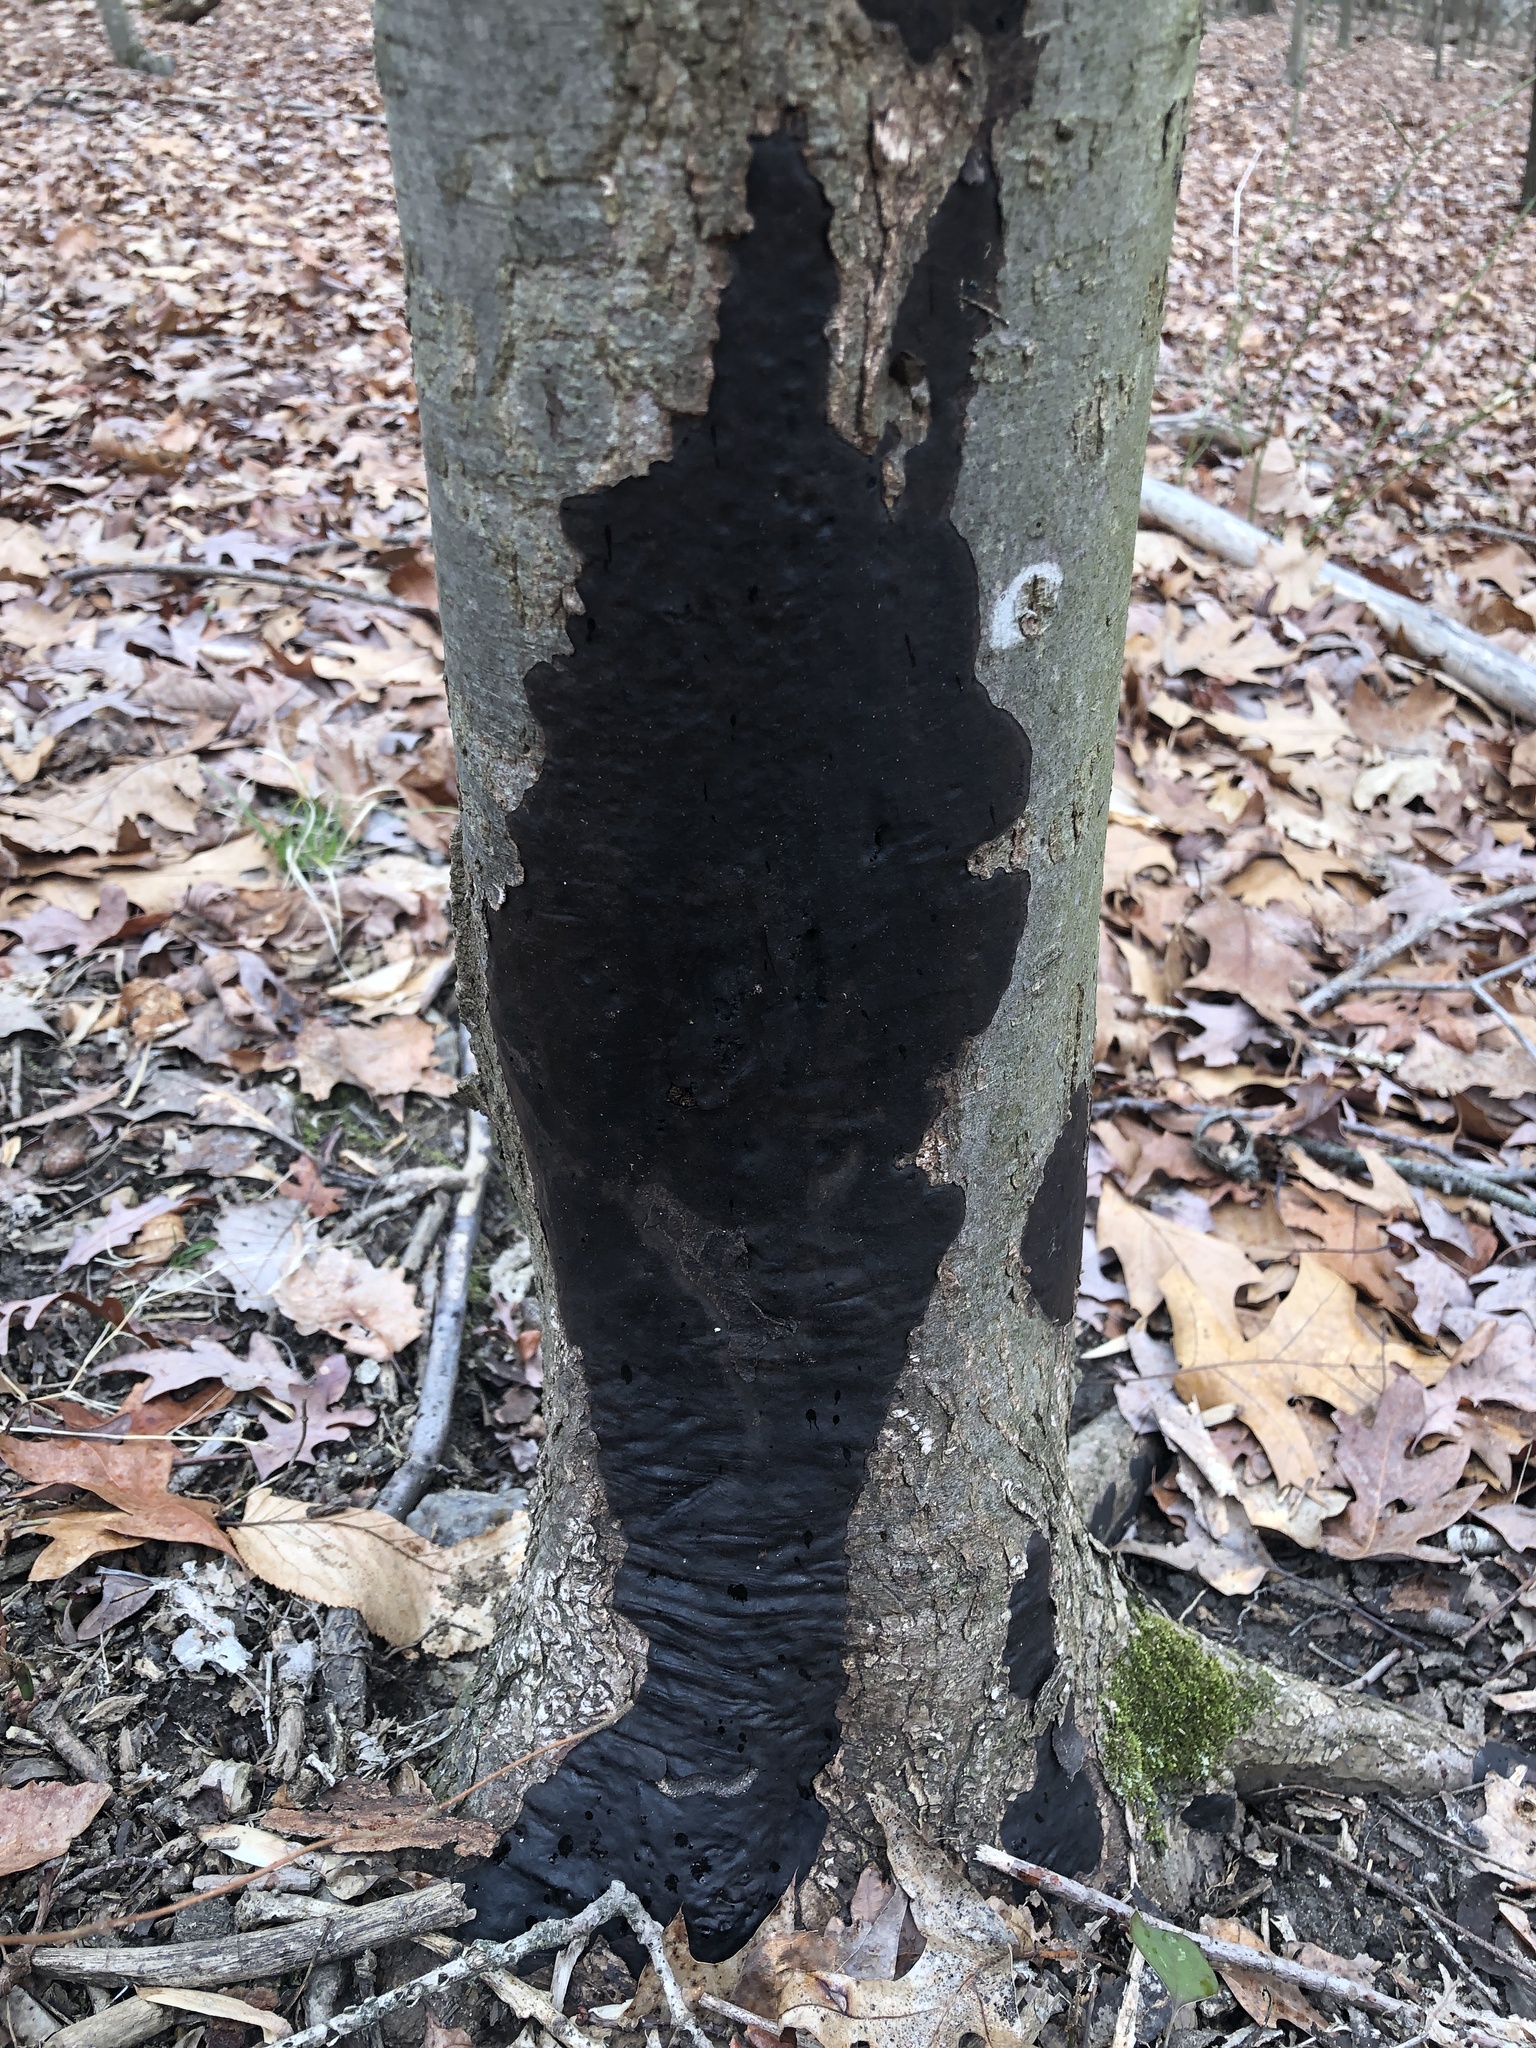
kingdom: Fungi
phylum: Ascomycota
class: Sordariomycetes
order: Xylariales
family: Diatrypaceae
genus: Diatrype
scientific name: Diatrype stigma
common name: Common tarcrust
